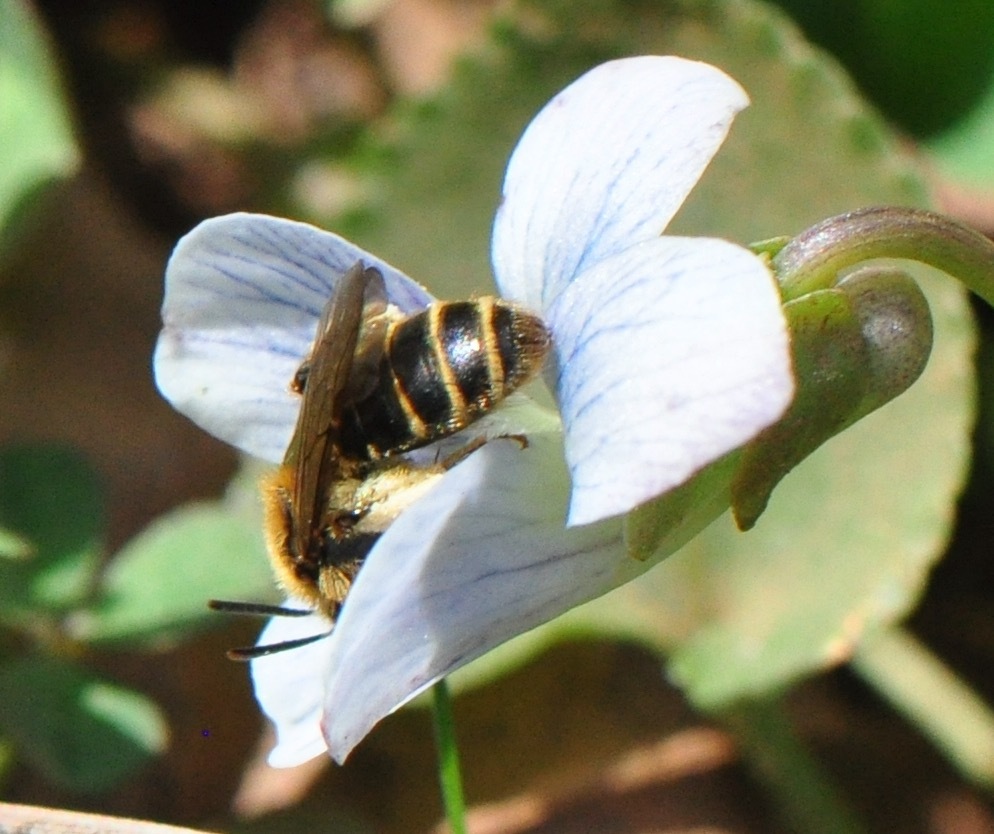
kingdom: Animalia
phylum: Arthropoda
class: Insecta
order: Hymenoptera
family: Andrenidae
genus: Andrena
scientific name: Andrena violae
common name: Violet miner
